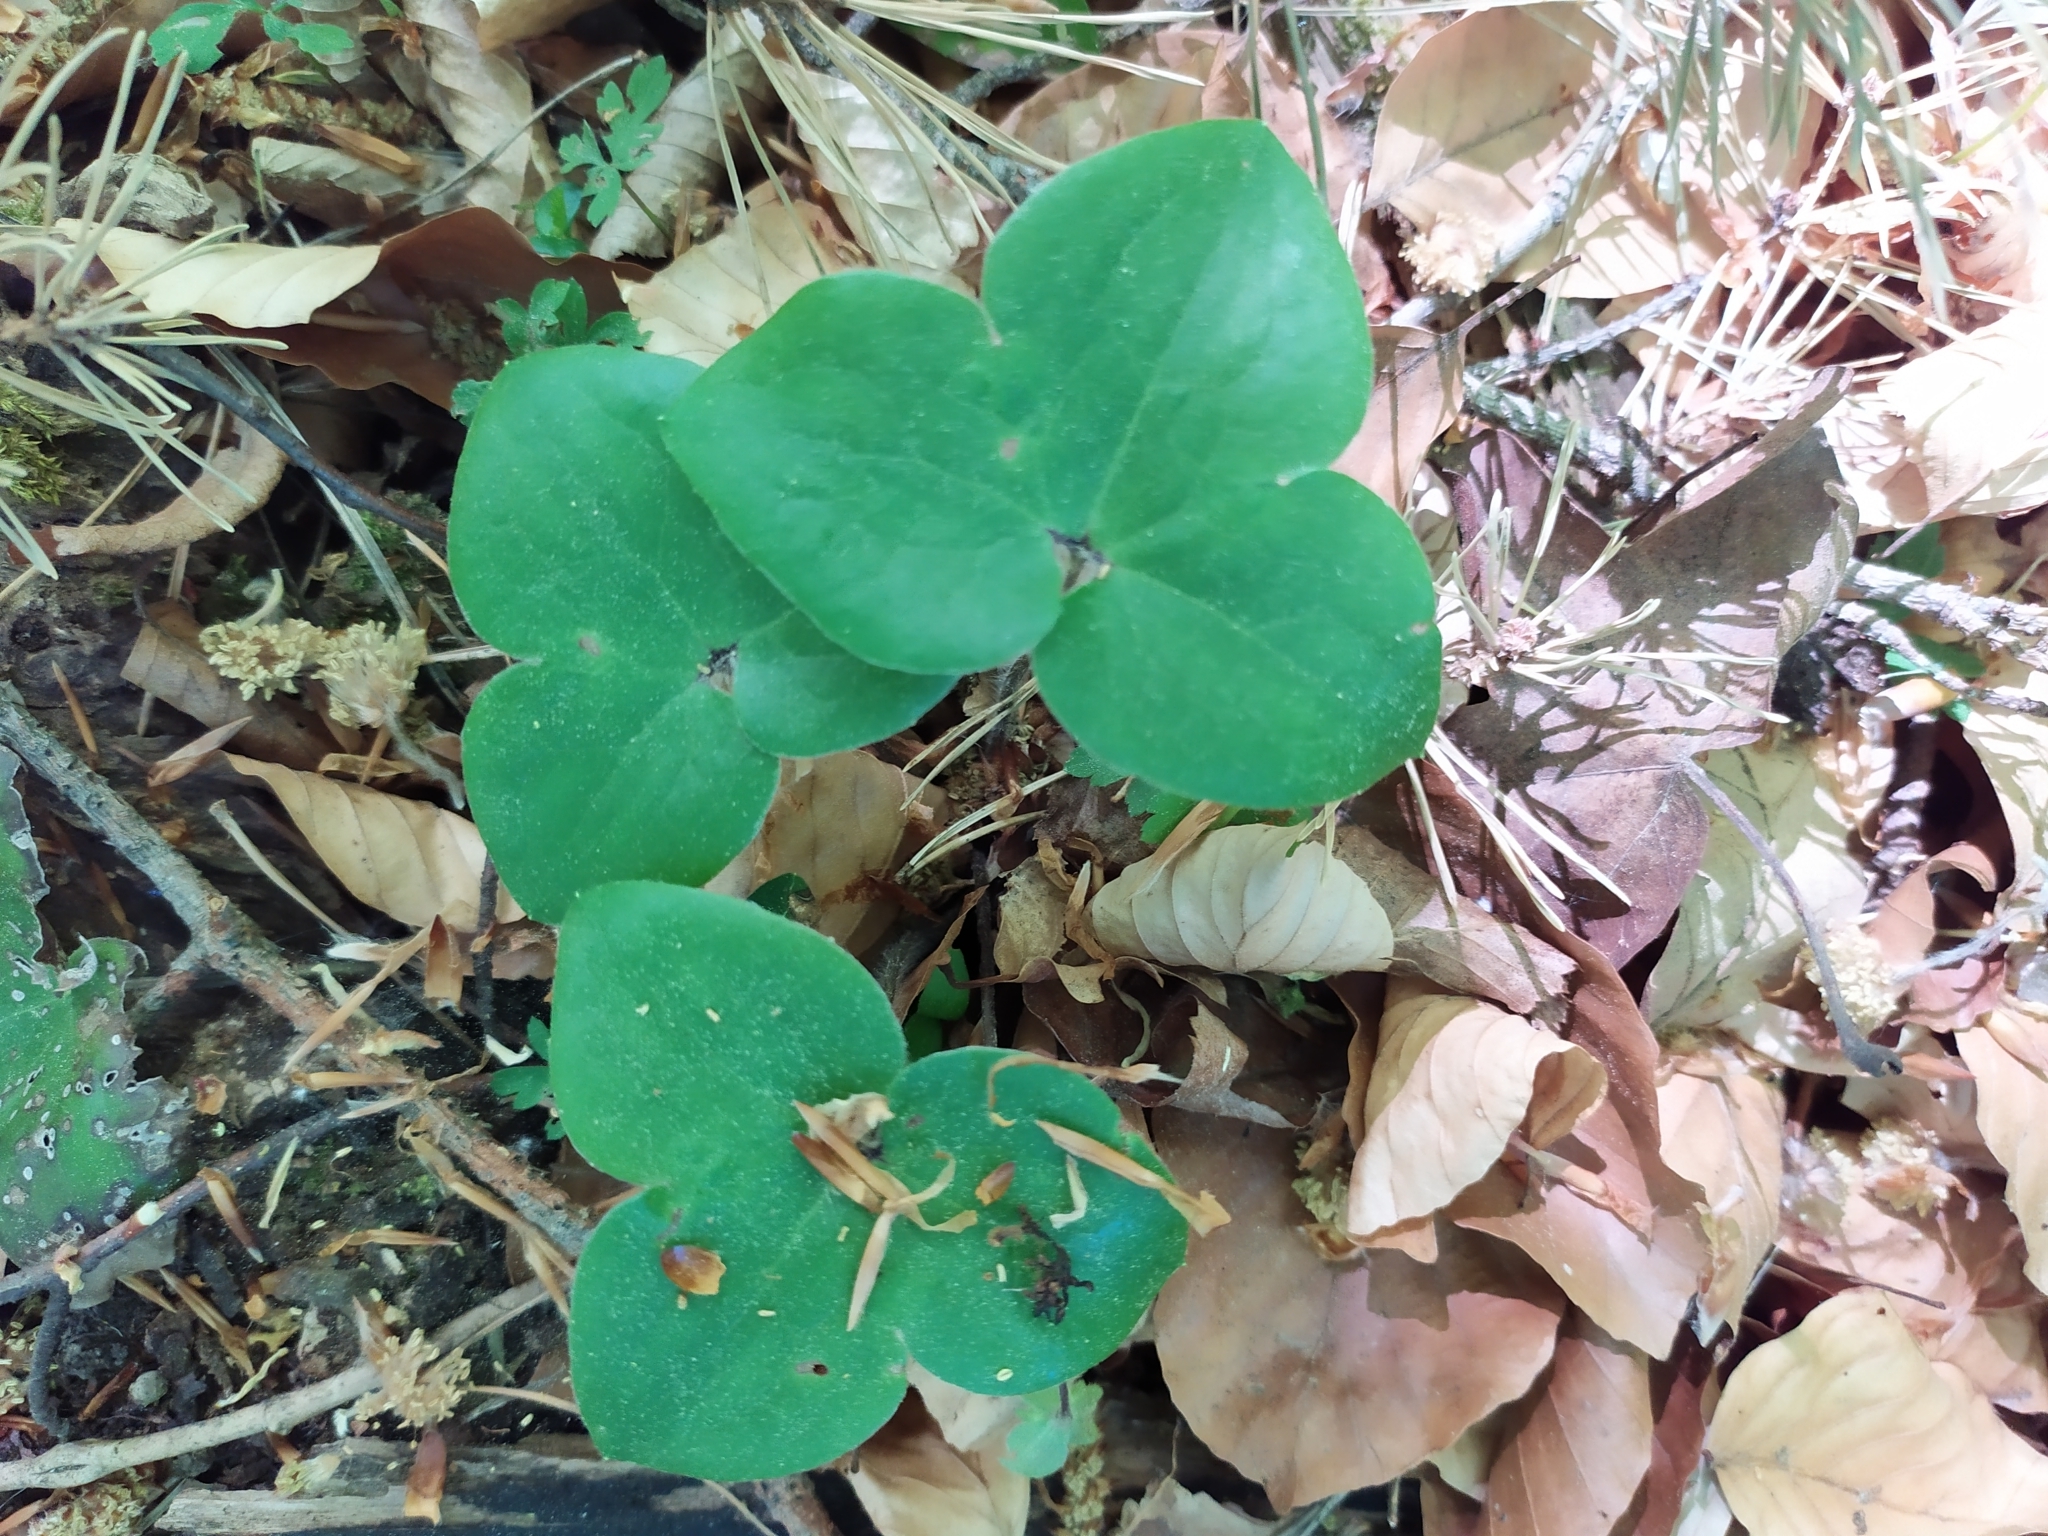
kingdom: Plantae
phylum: Tracheophyta
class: Magnoliopsida
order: Ranunculales
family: Ranunculaceae
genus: Hepatica
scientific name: Hepatica nobilis
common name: Liverleaf
